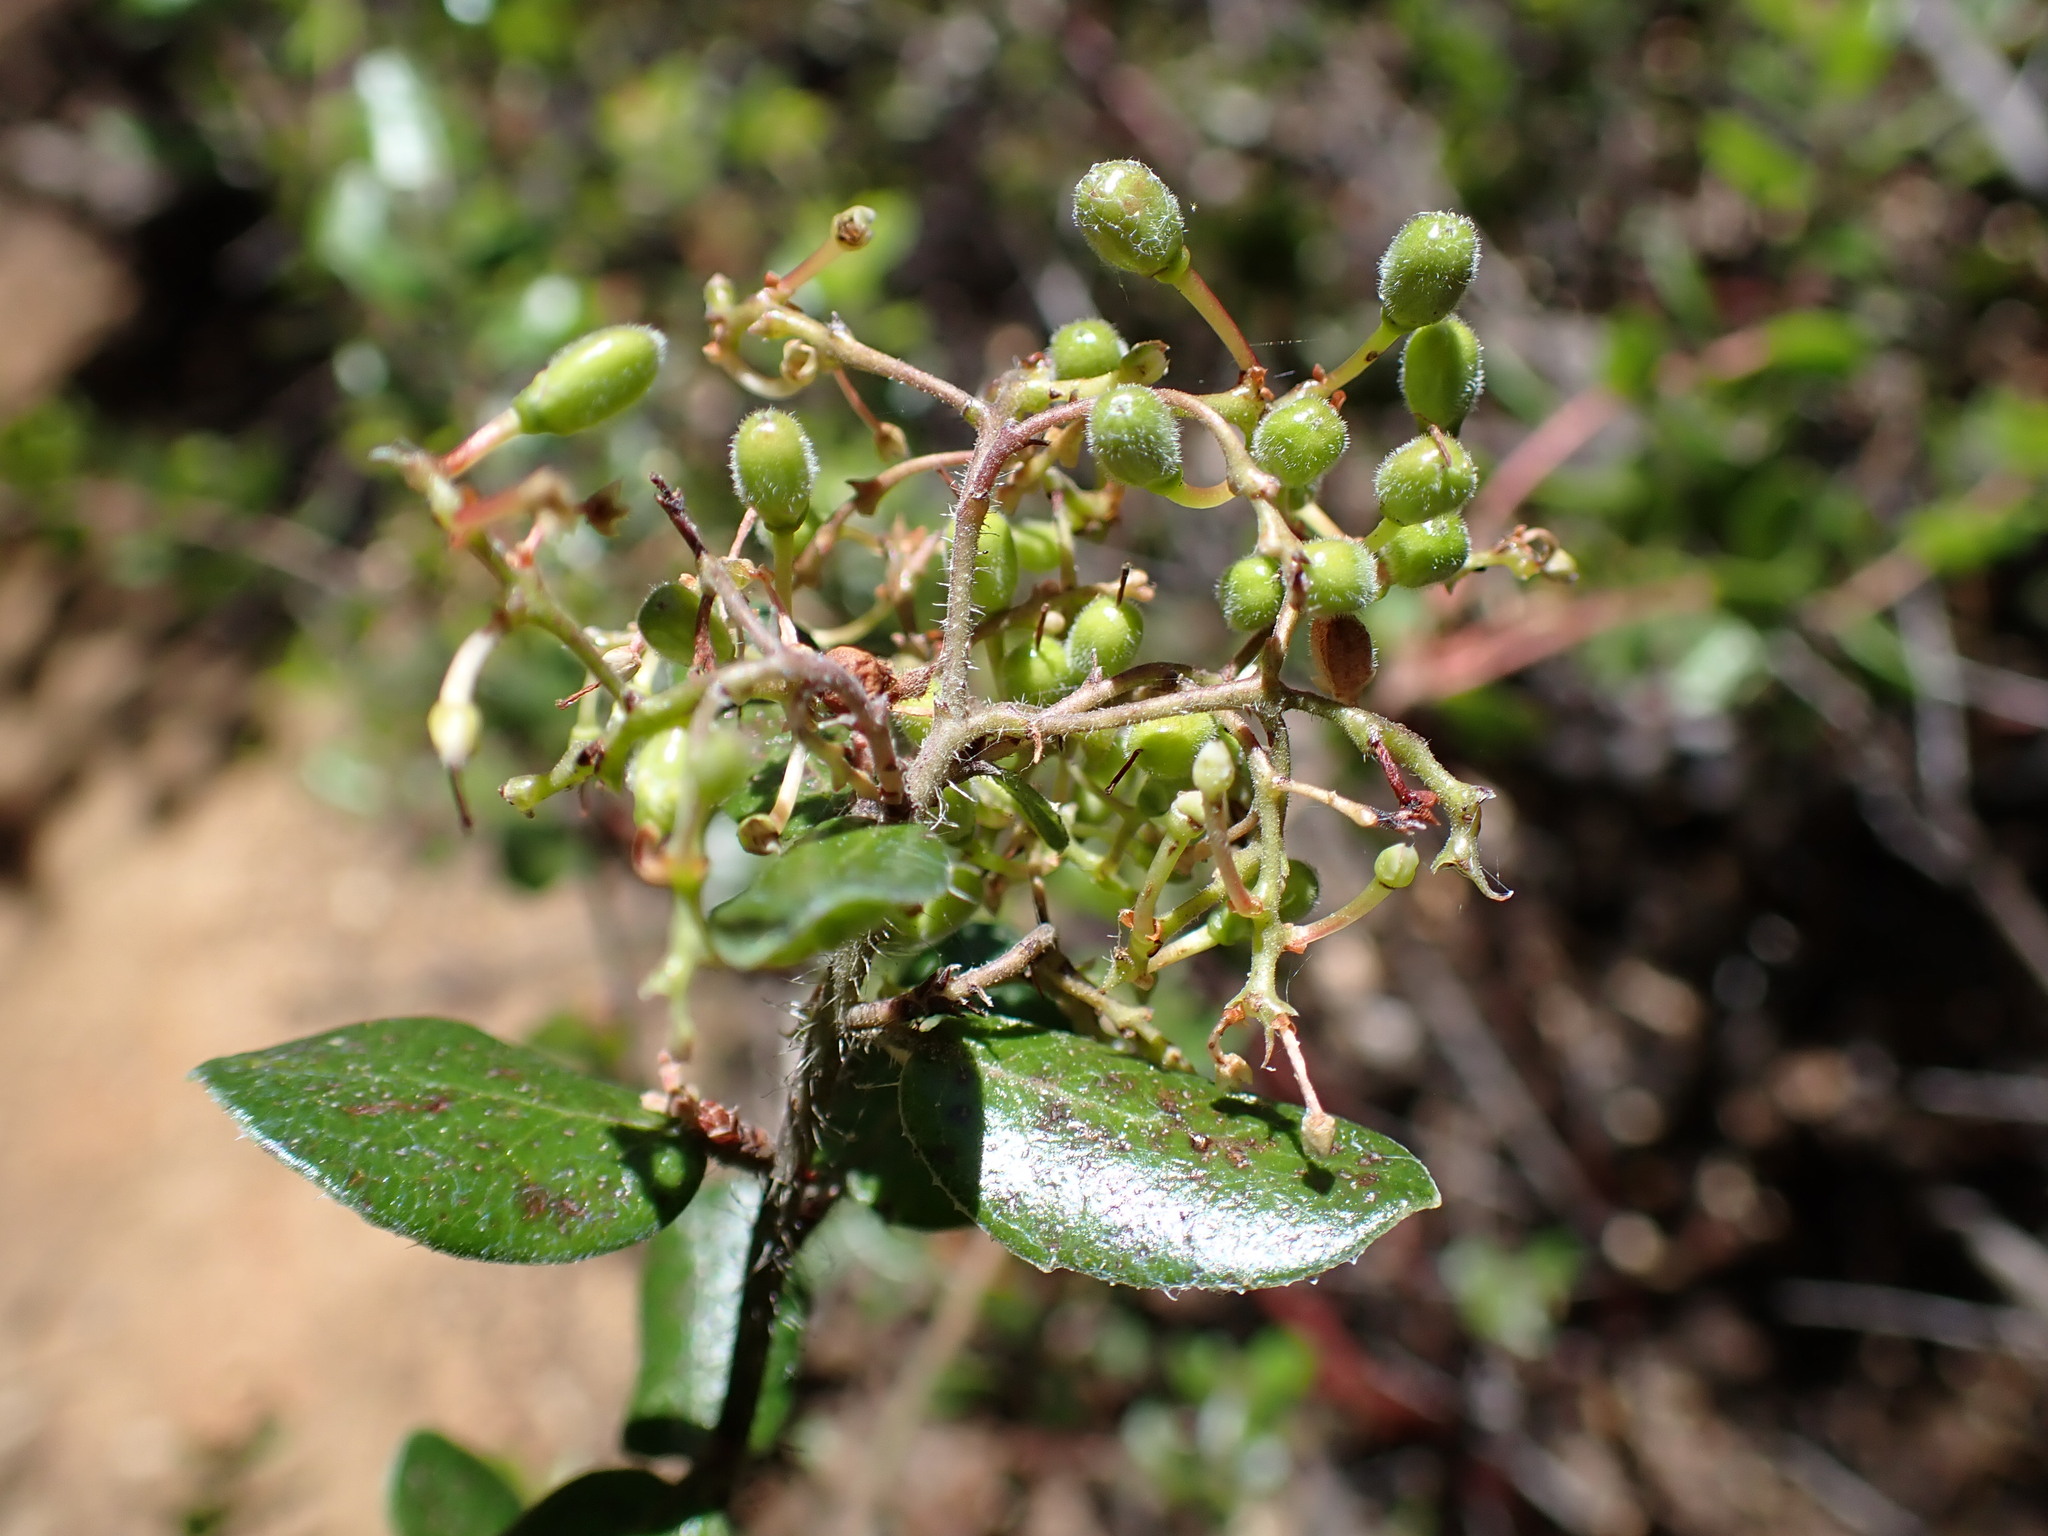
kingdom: Plantae
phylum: Tracheophyta
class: Magnoliopsida
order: Ericales
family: Ericaceae
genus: Arctostaphylos
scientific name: Arctostaphylos nummularia
